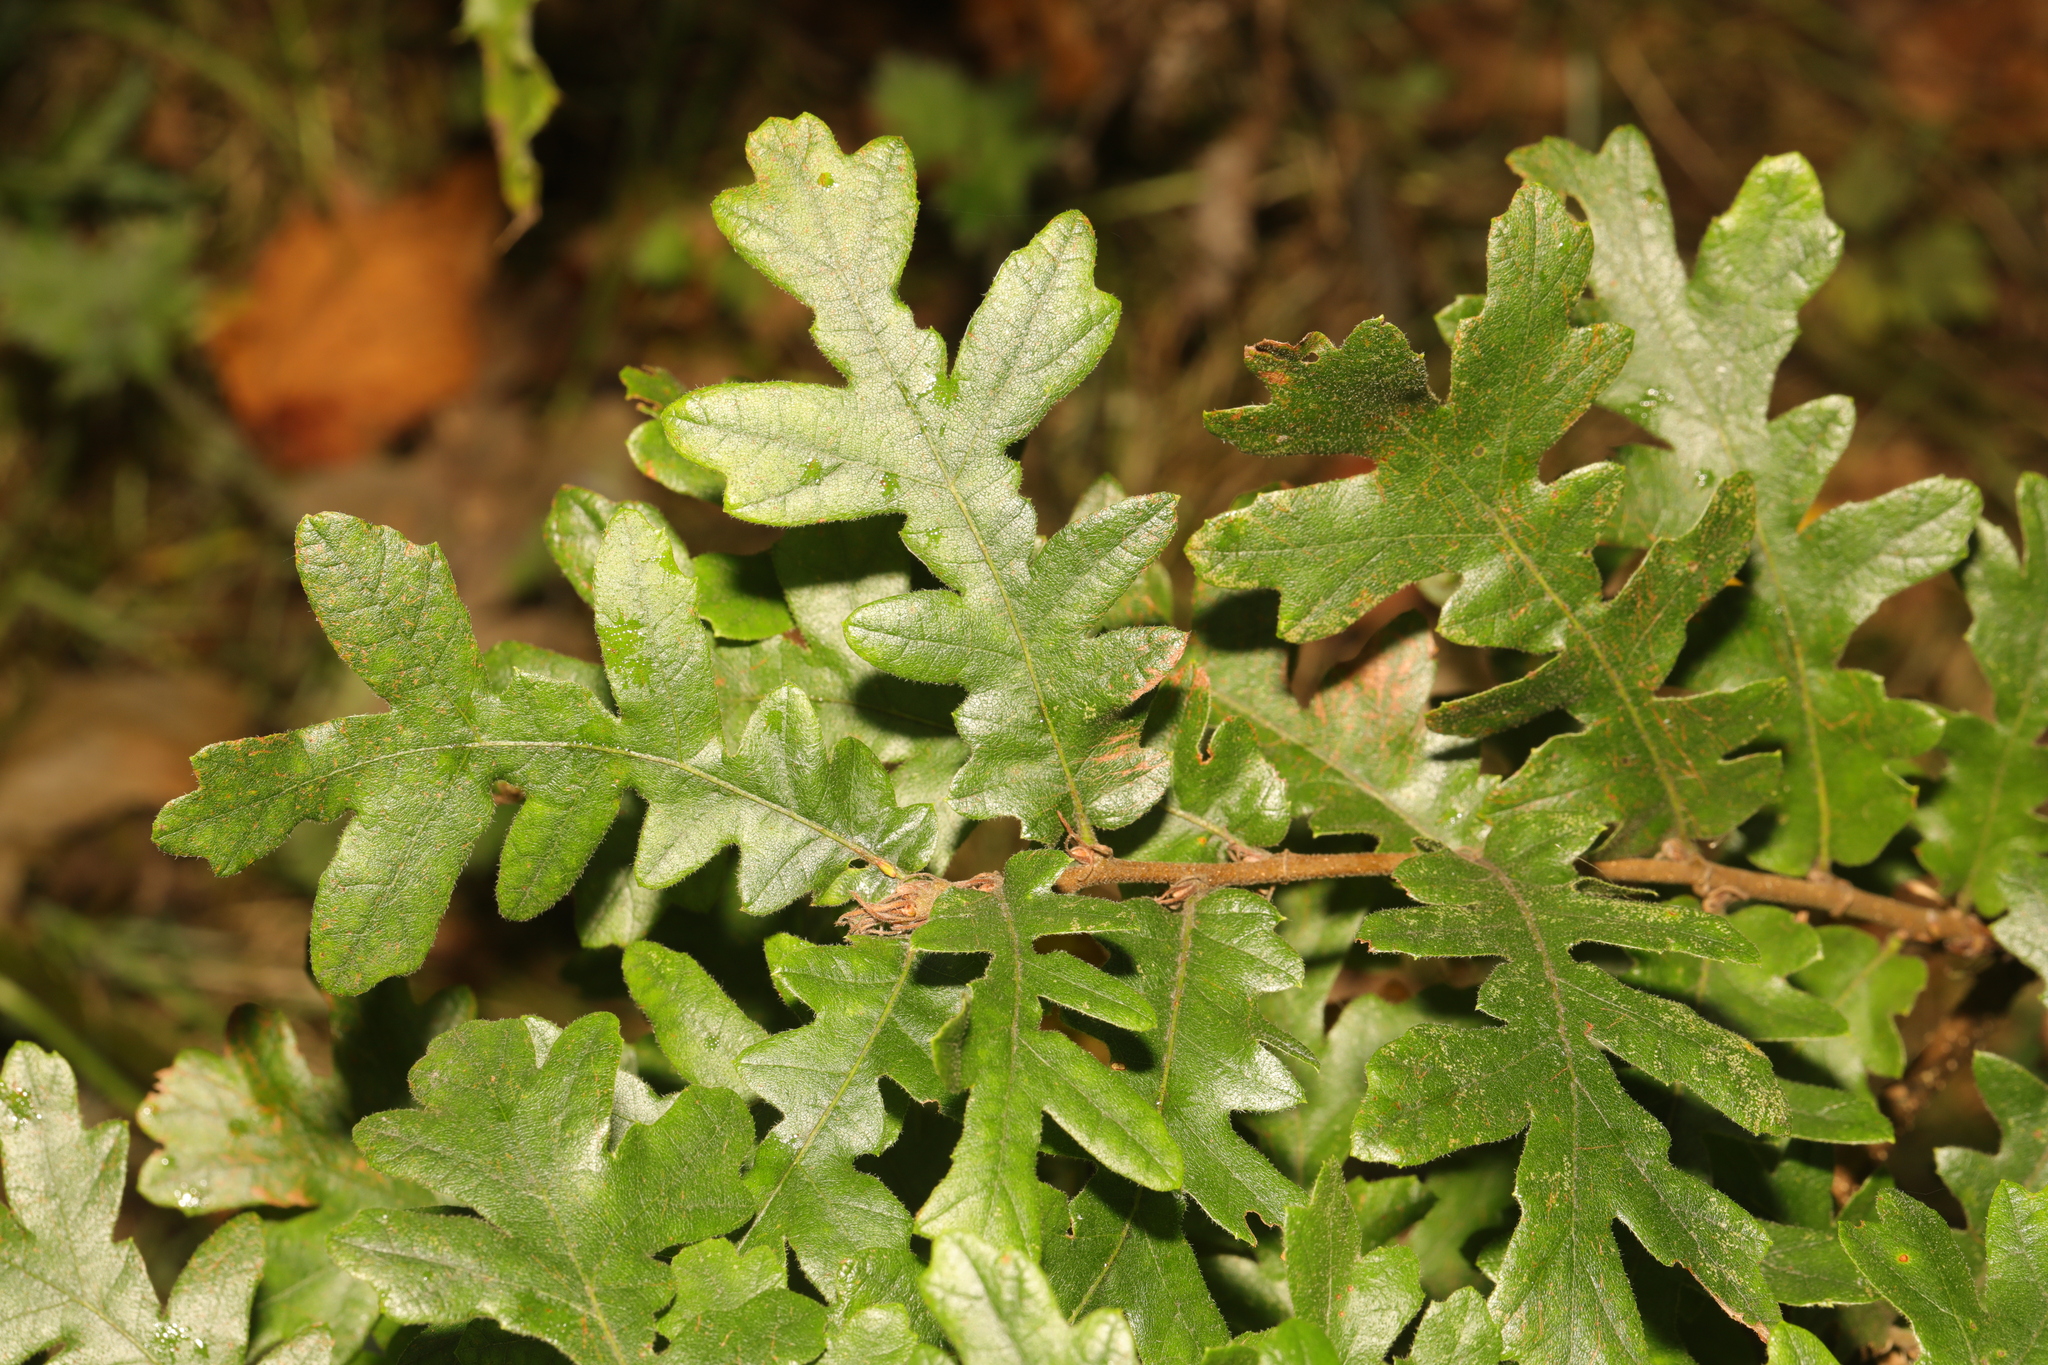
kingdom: Plantae
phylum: Tracheophyta
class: Magnoliopsida
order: Fagales
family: Fagaceae
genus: Quercus
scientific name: Quercus cerris
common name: Turkey oak
